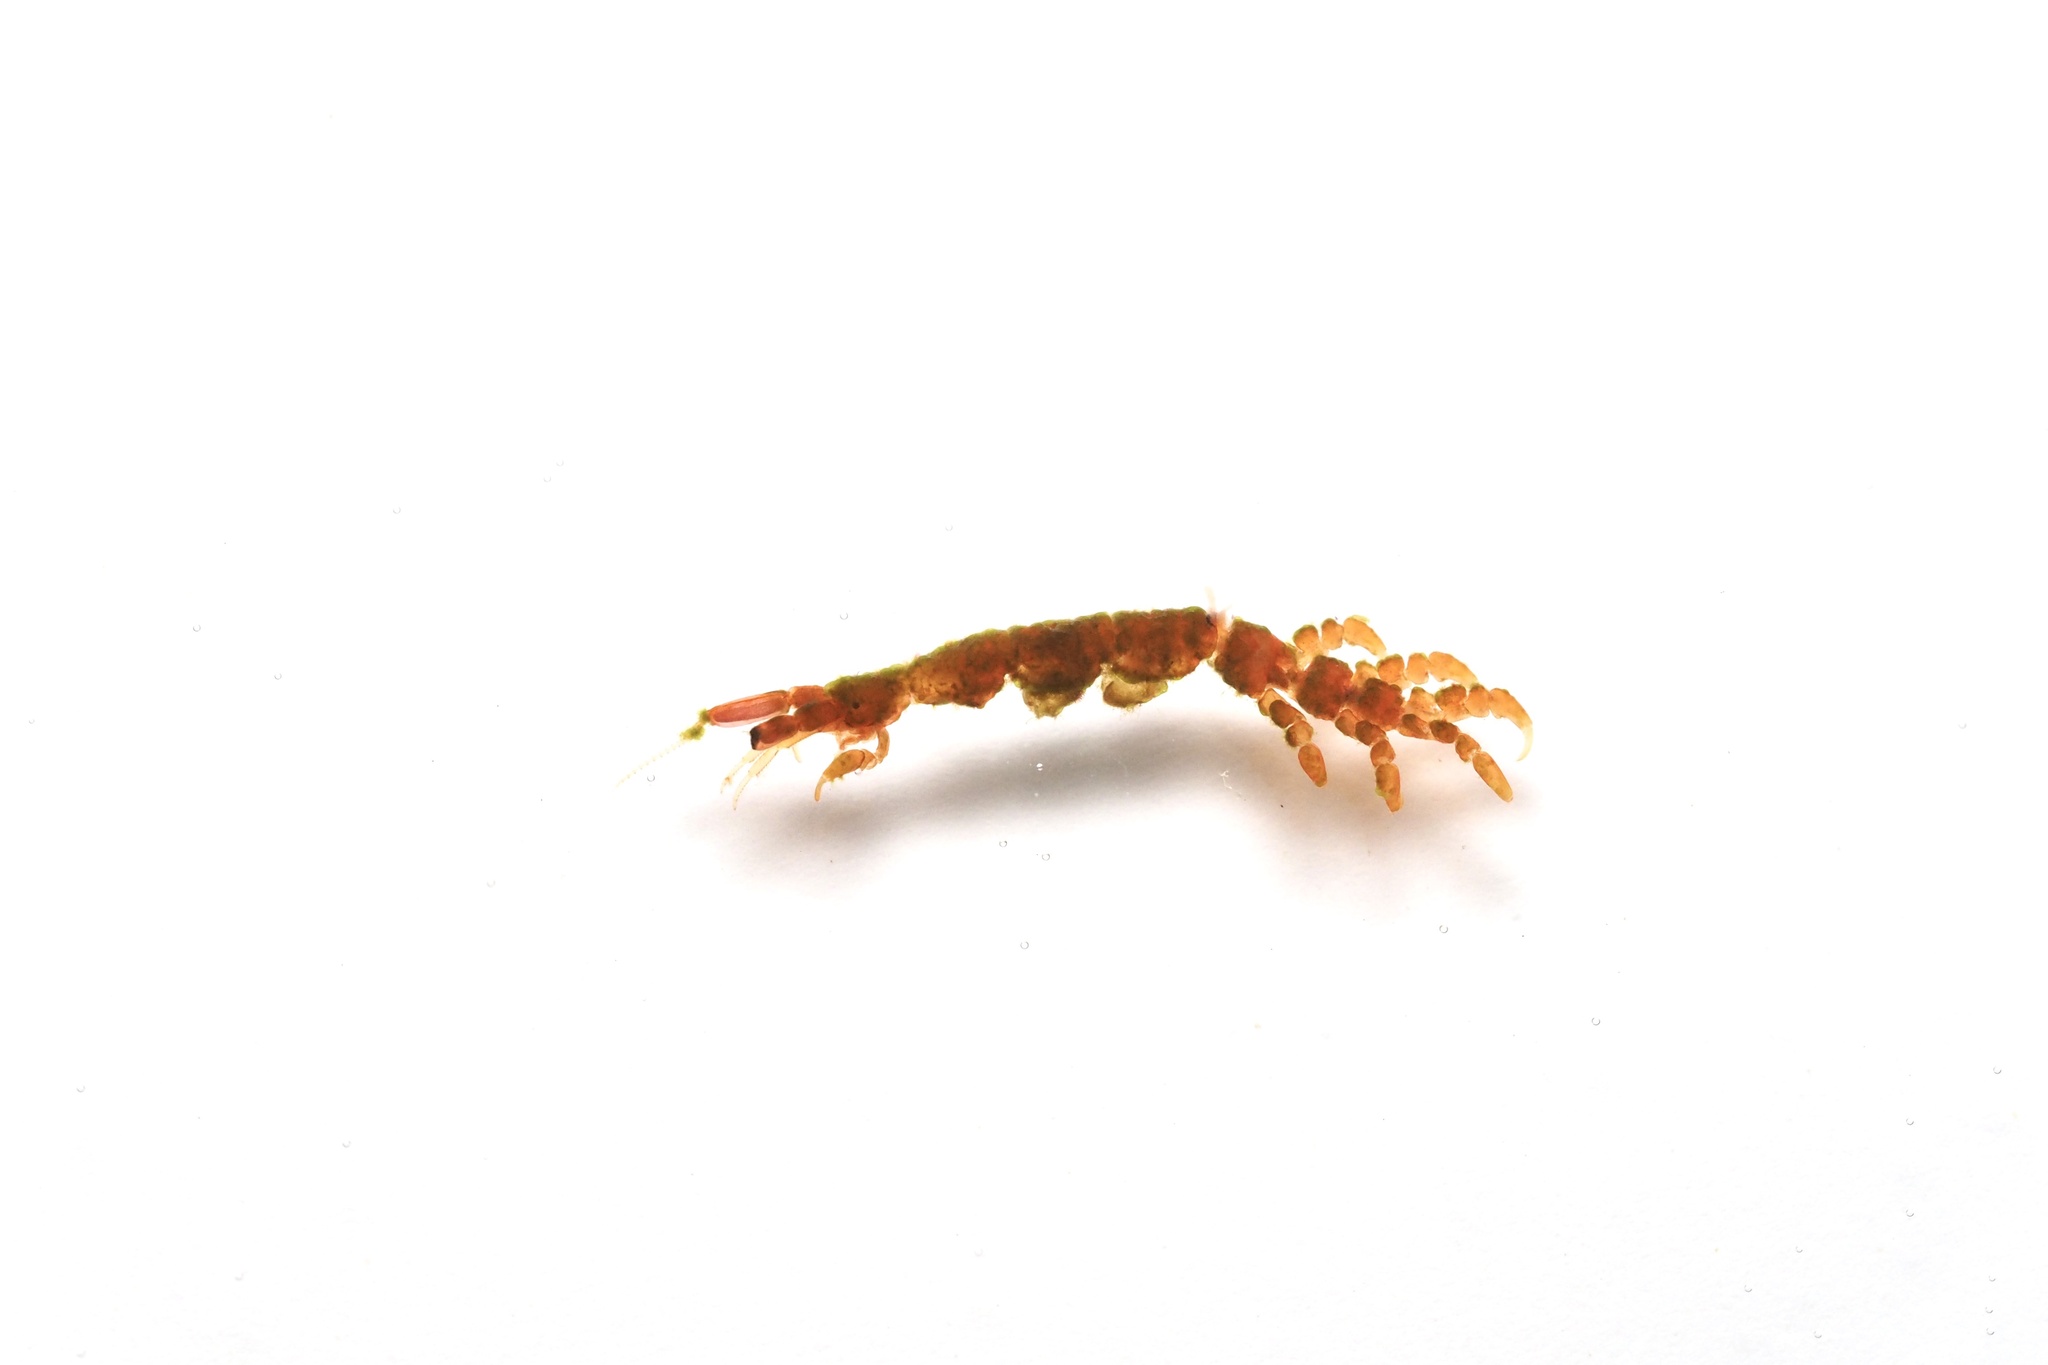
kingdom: Animalia
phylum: Arthropoda
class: Malacostraca
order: Amphipoda
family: Caprellidae
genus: Caprella
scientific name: Caprella penantis
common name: Skeleton shrimp
